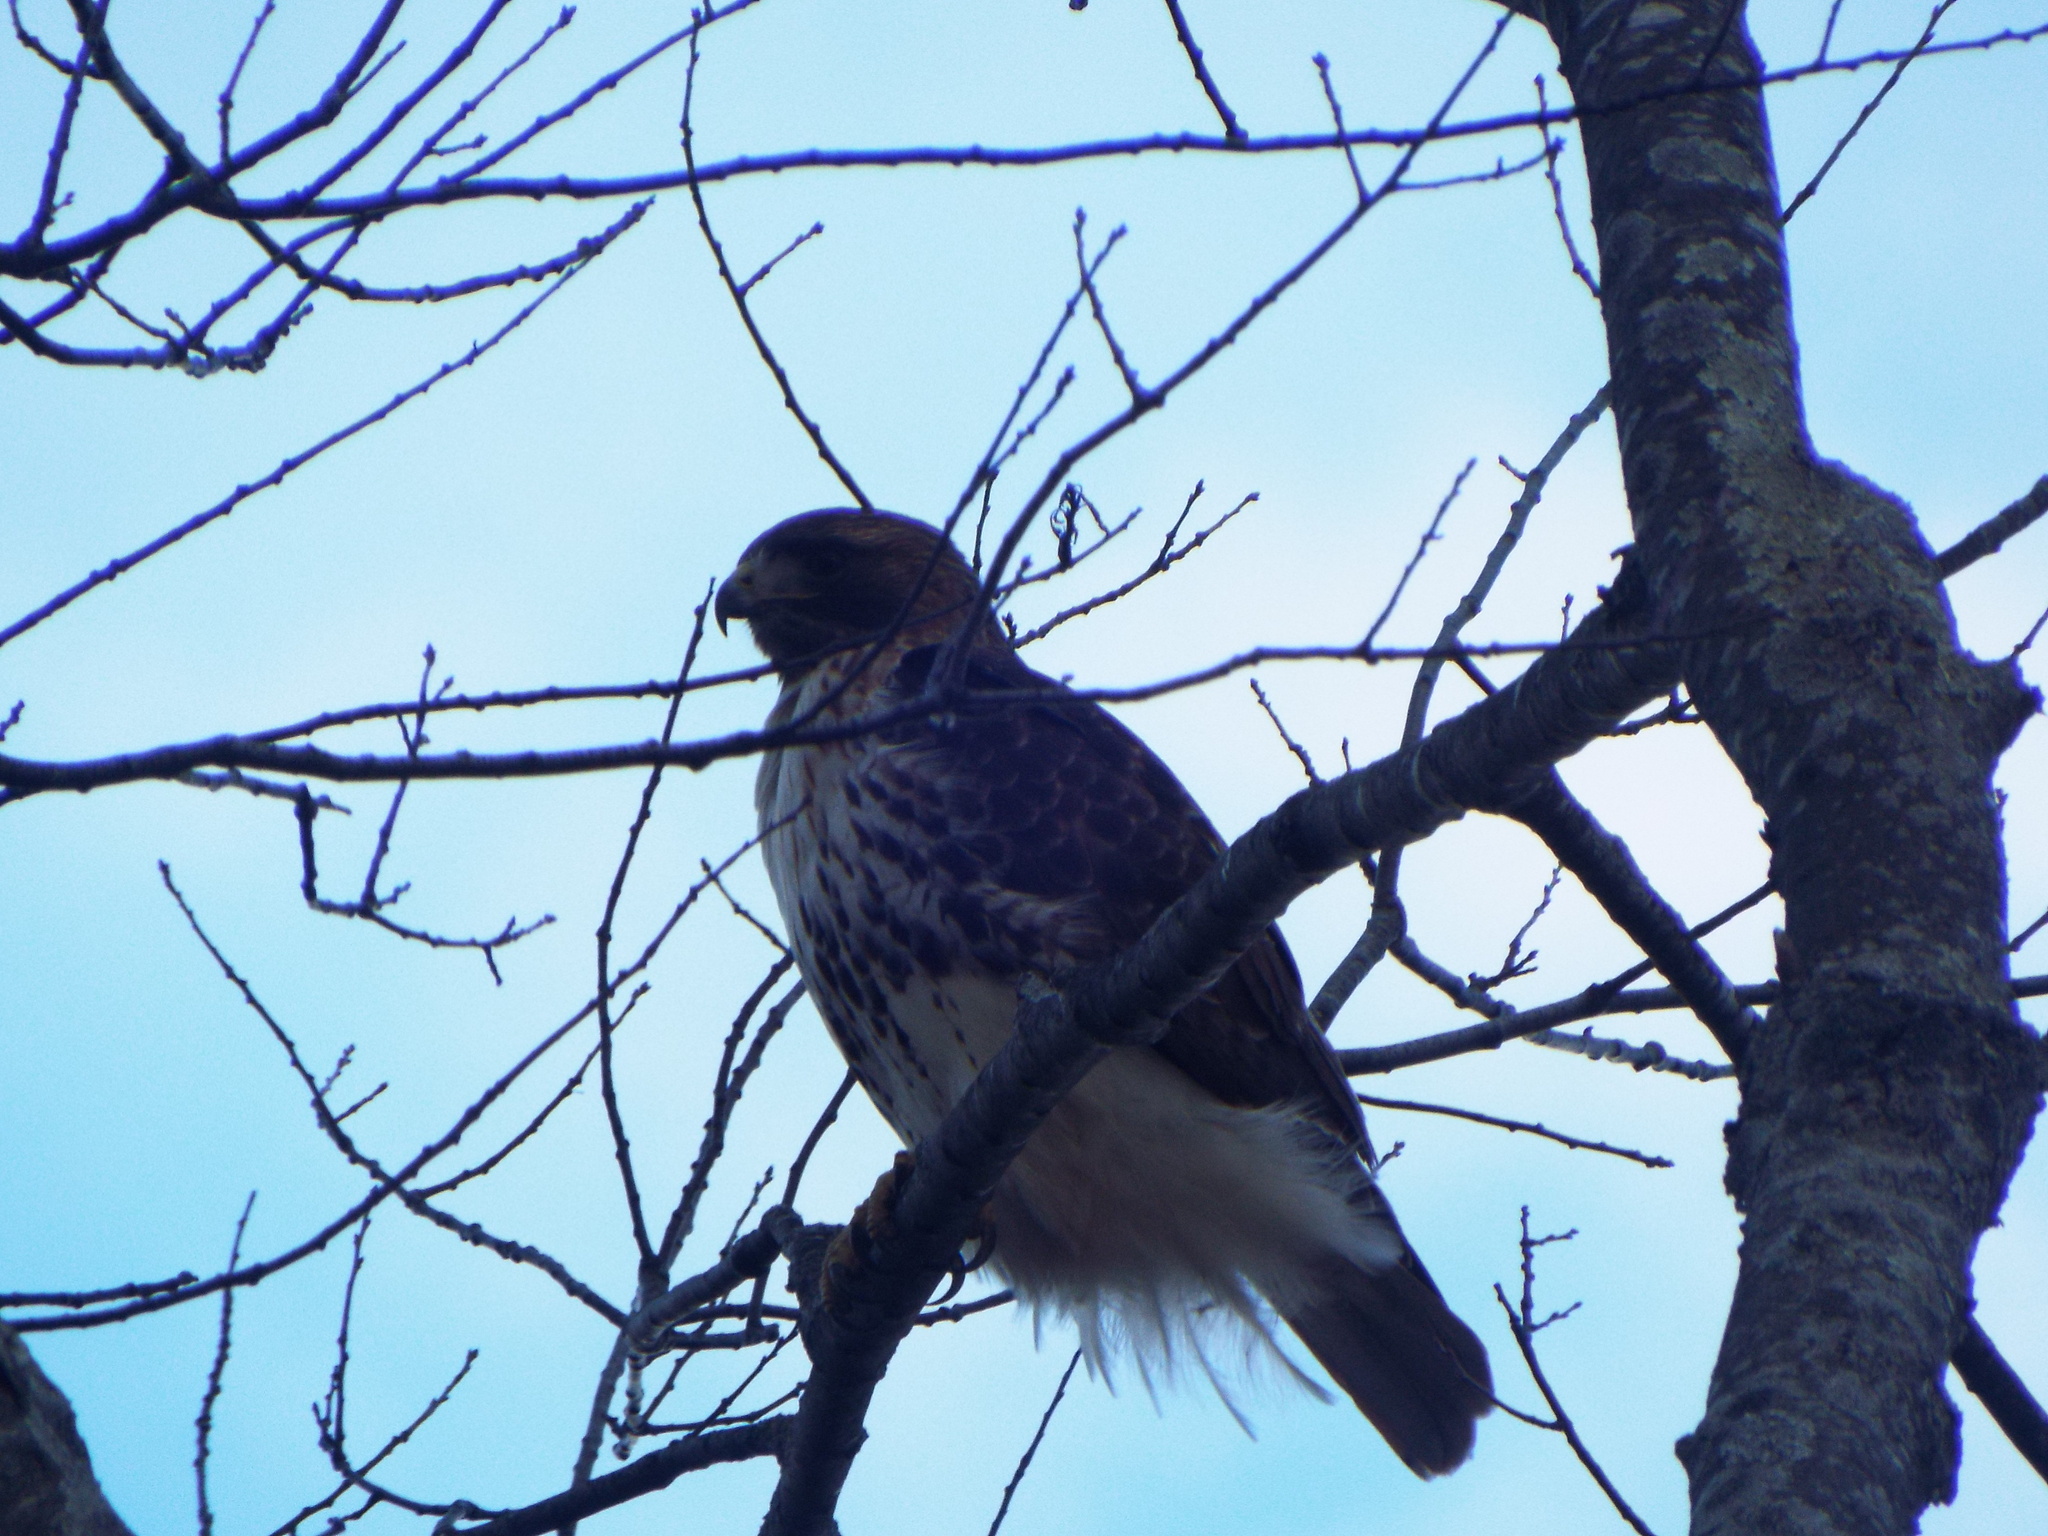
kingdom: Animalia
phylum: Chordata
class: Aves
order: Accipitriformes
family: Accipitridae
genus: Buteo
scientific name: Buteo jamaicensis
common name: Red-tailed hawk
